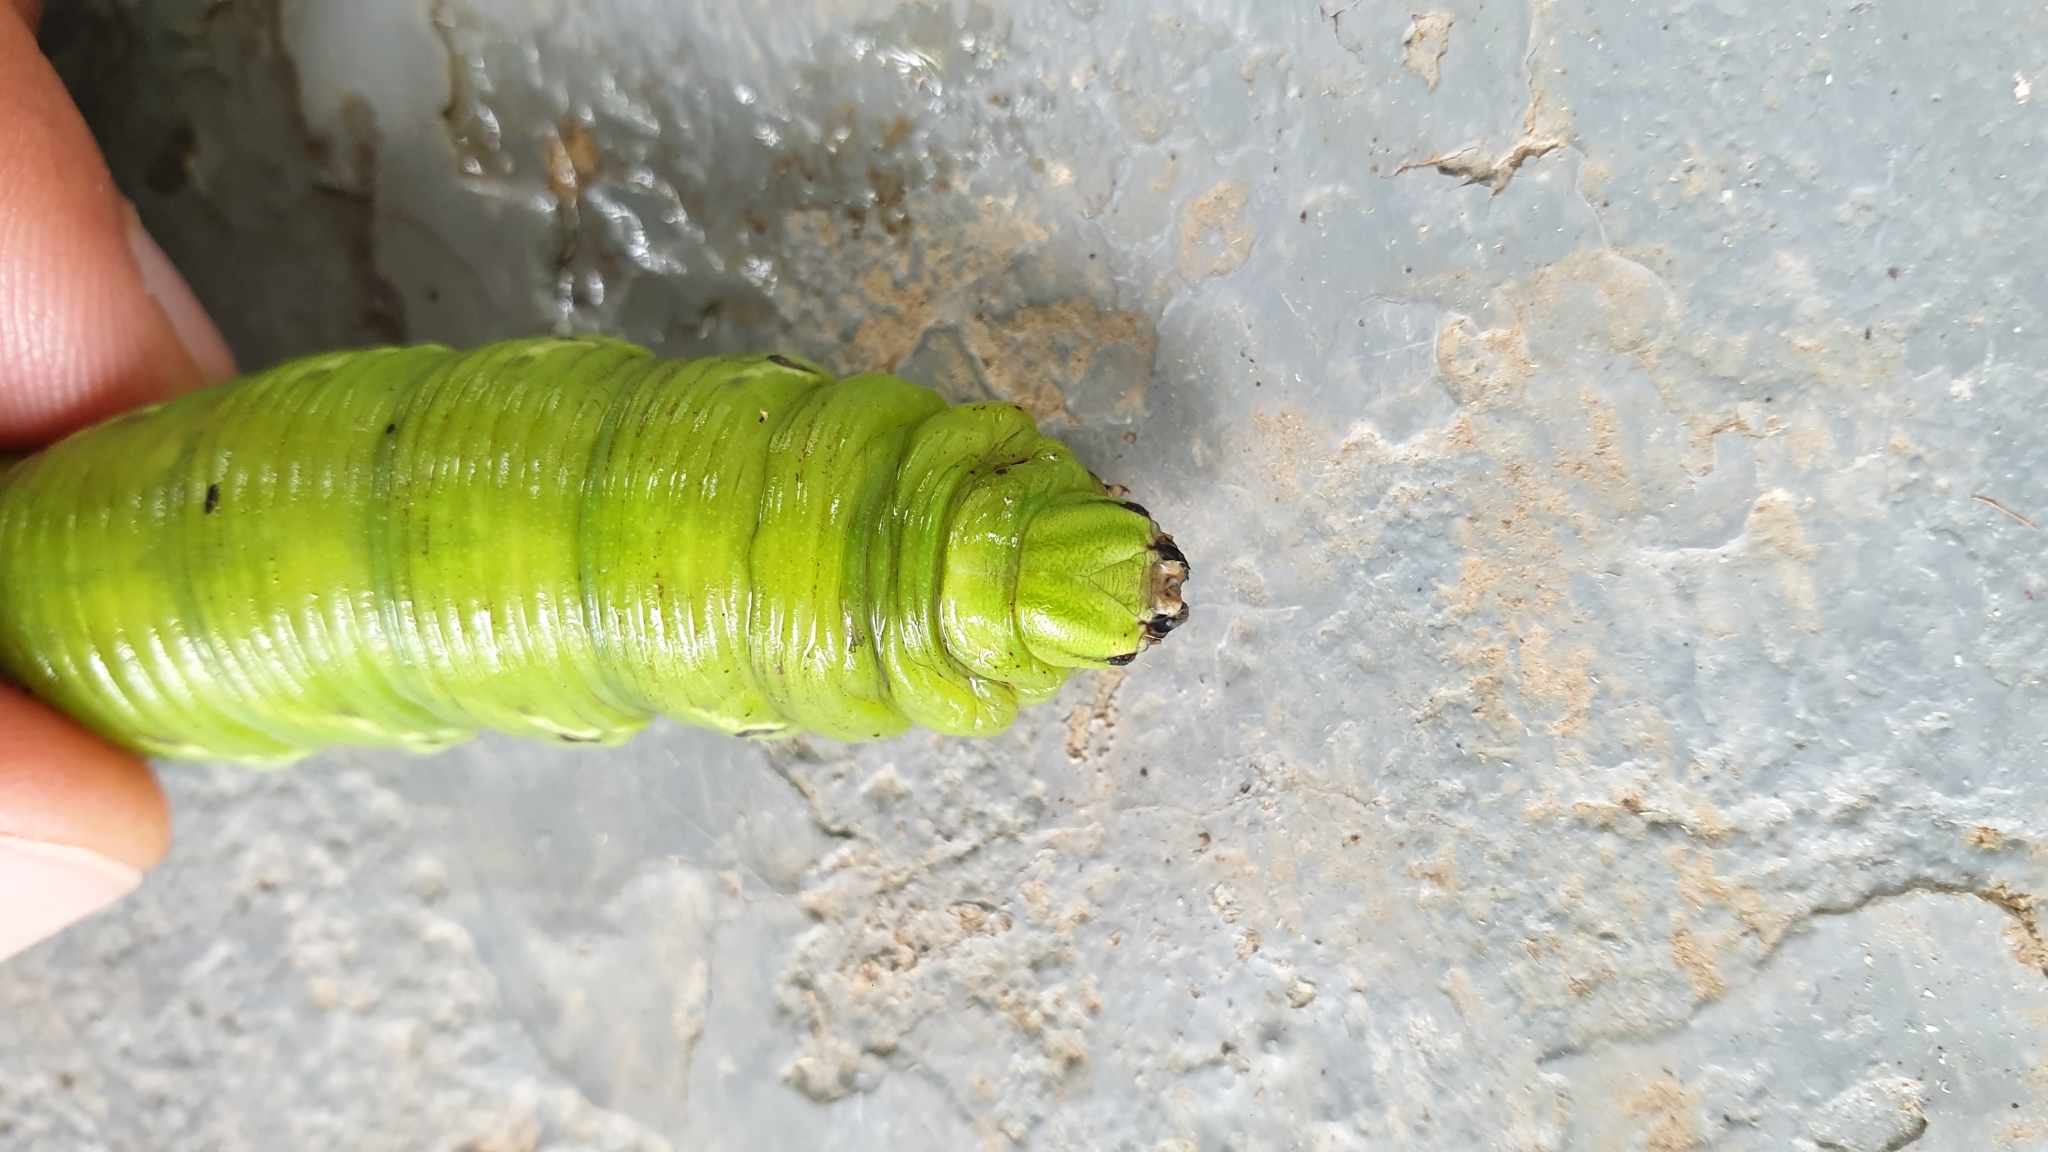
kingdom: Animalia
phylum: Arthropoda
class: Insecta
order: Lepidoptera
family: Sphingidae
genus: Agrius
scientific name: Agrius convolvuli
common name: Convolvulus hawkmoth
